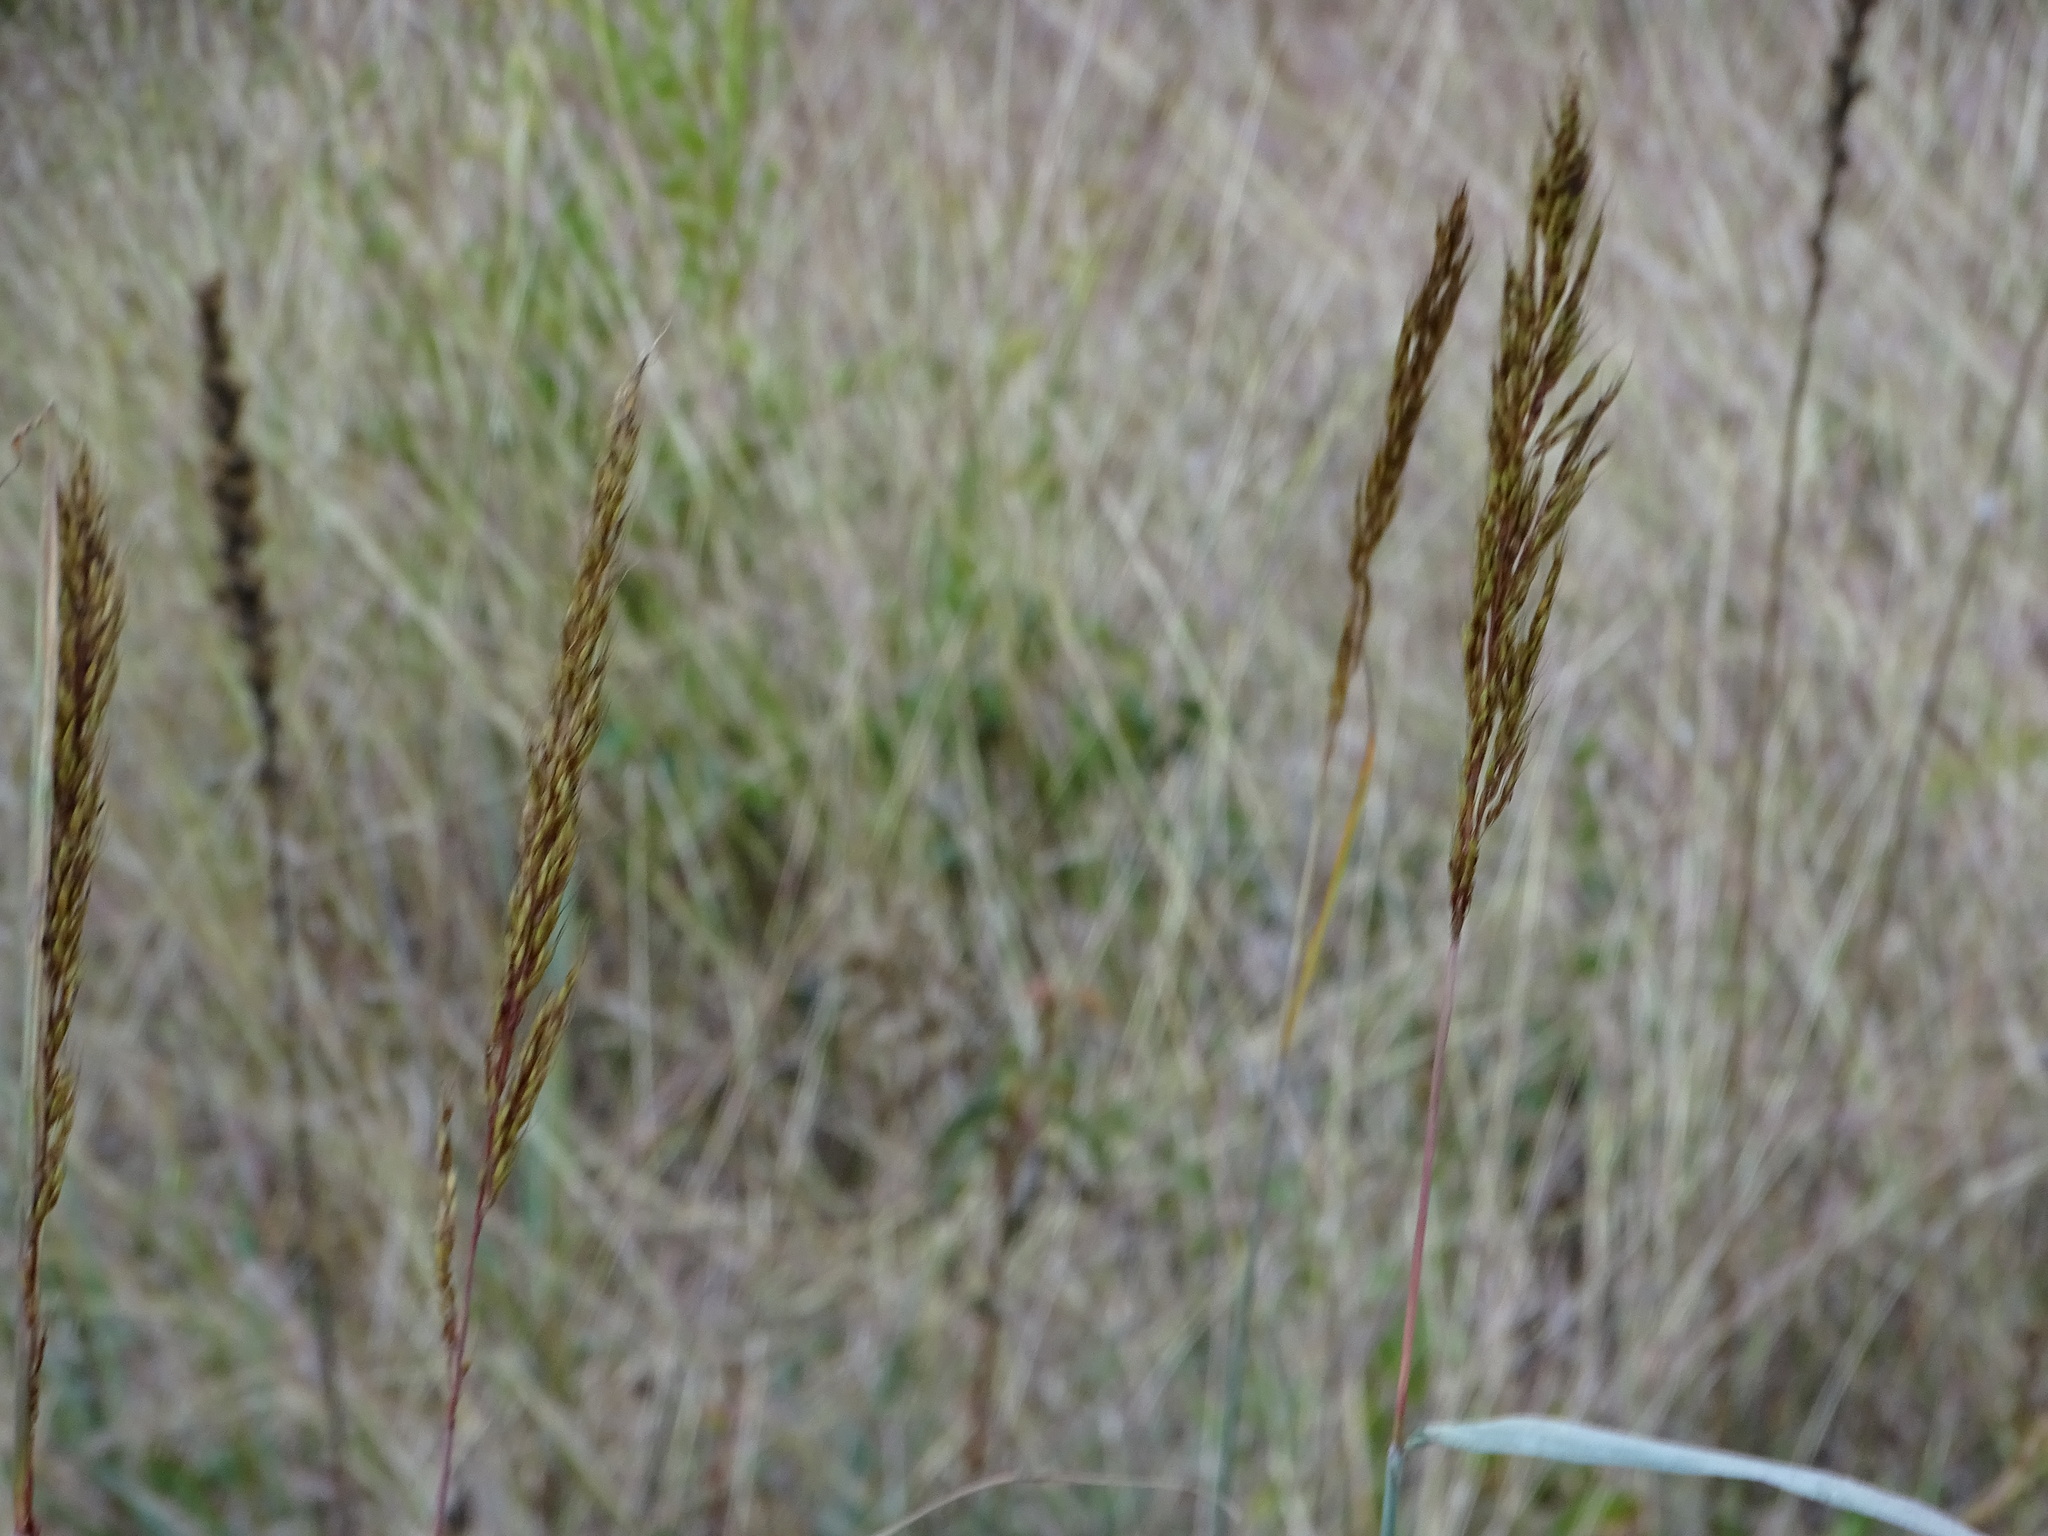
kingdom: Plantae
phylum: Tracheophyta
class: Liliopsida
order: Poales
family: Poaceae
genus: Sorghastrum
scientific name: Sorghastrum nutans
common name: Indian grass
